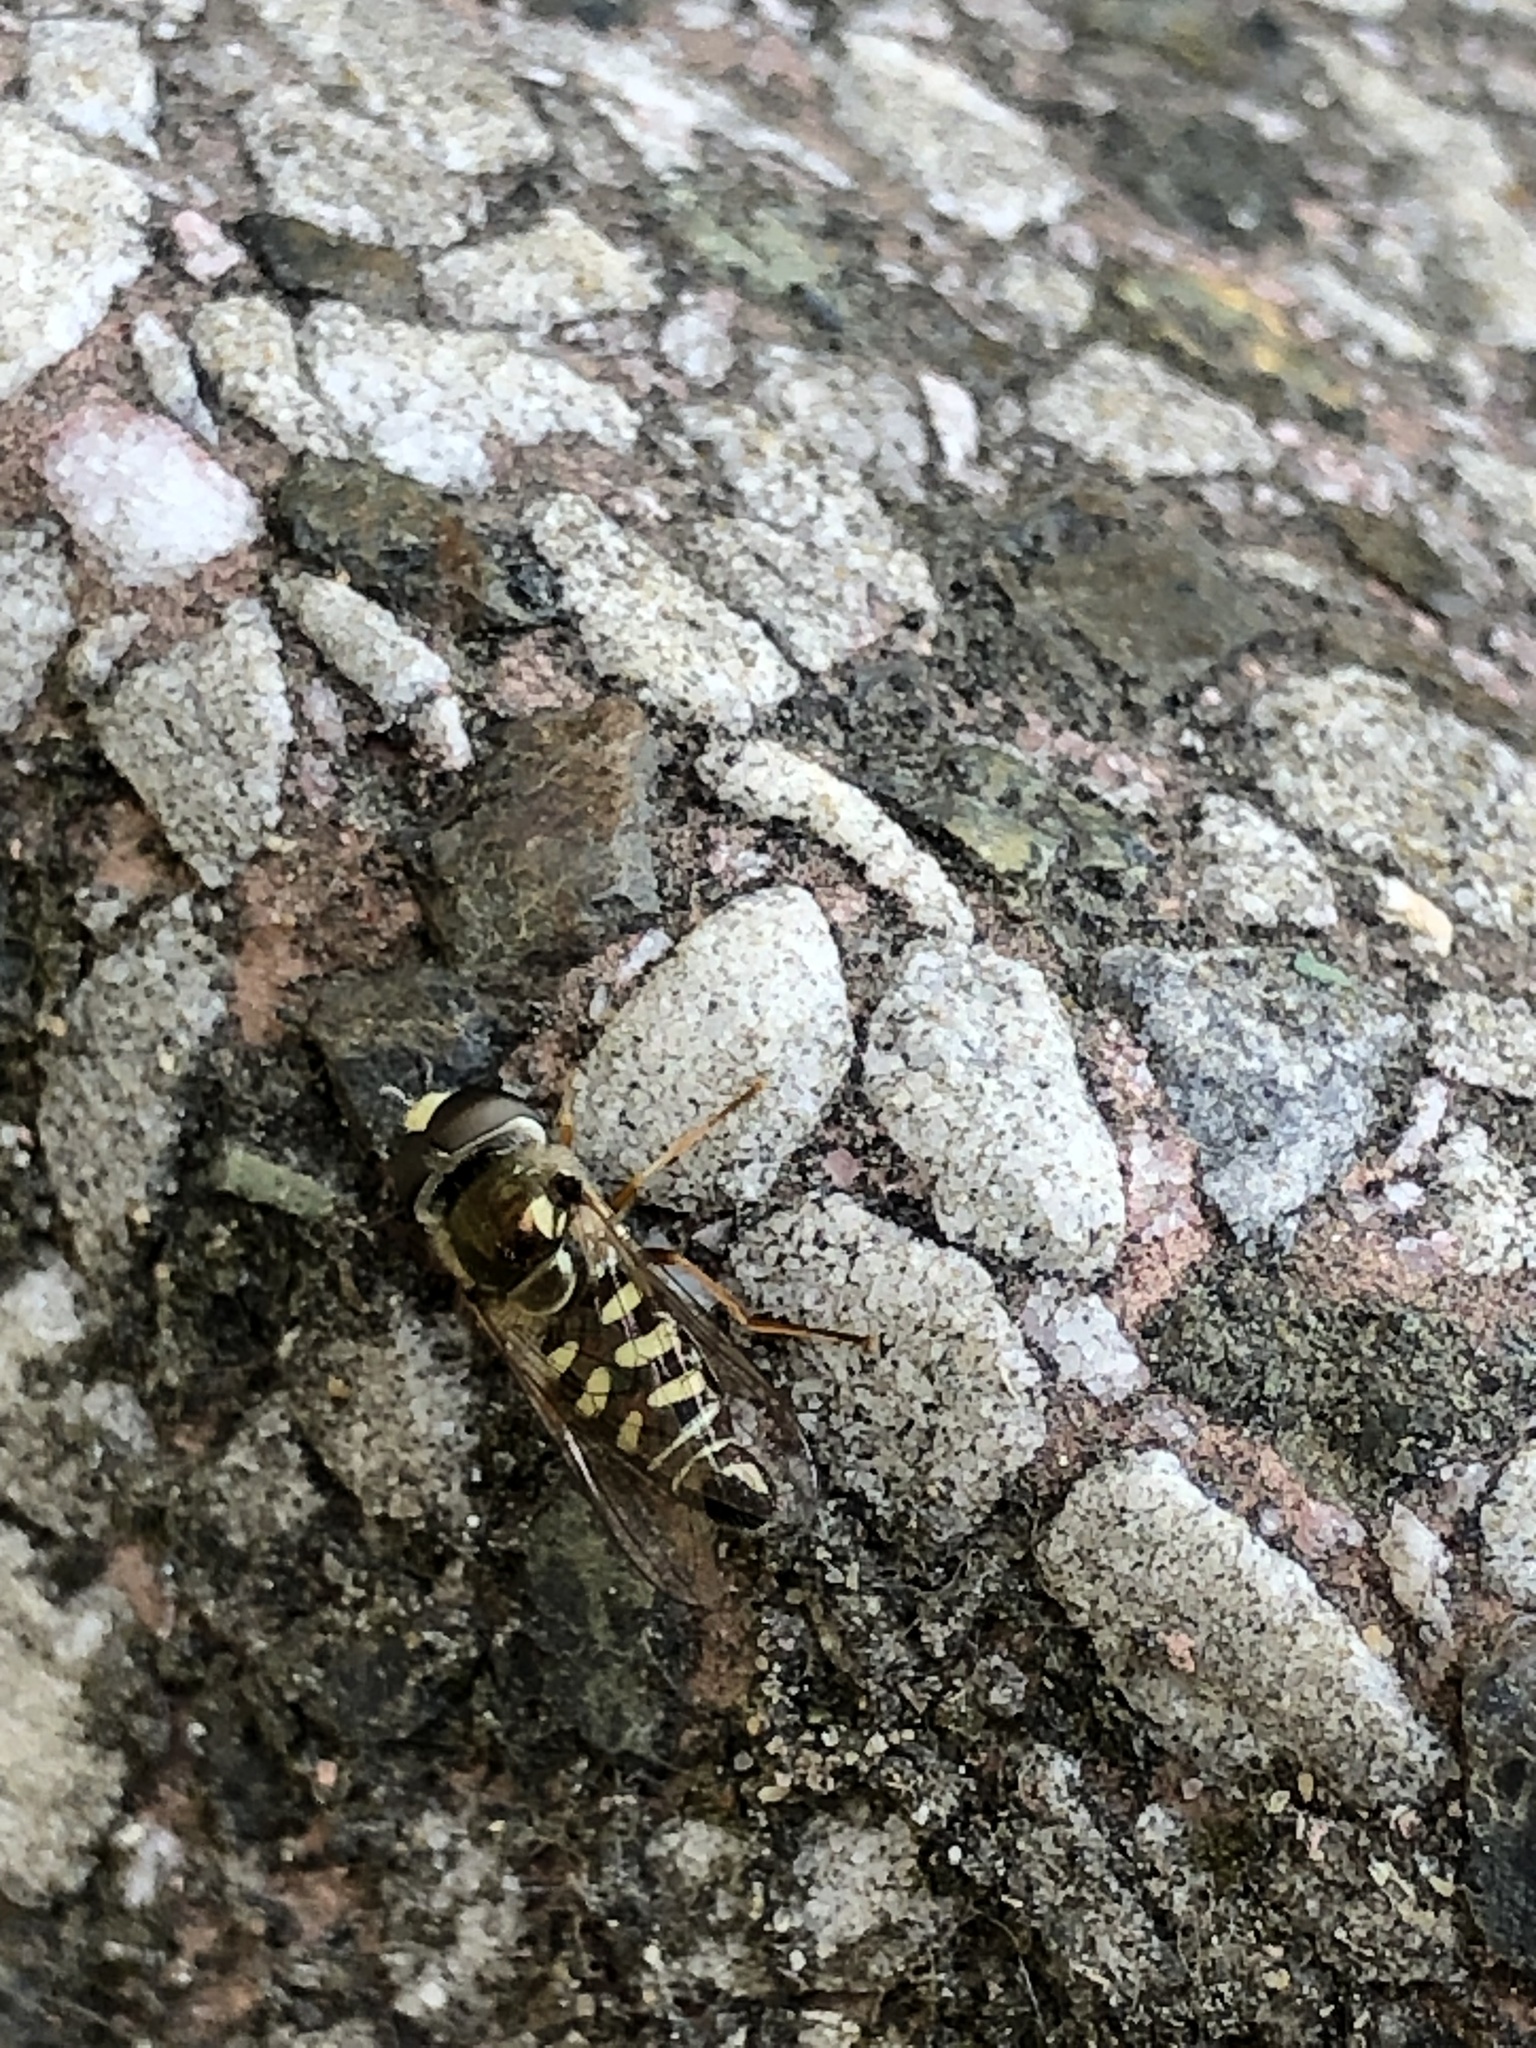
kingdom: Animalia
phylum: Arthropoda
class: Insecta
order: Diptera
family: Syrphidae
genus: Eupeodes
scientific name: Eupeodes volucris
